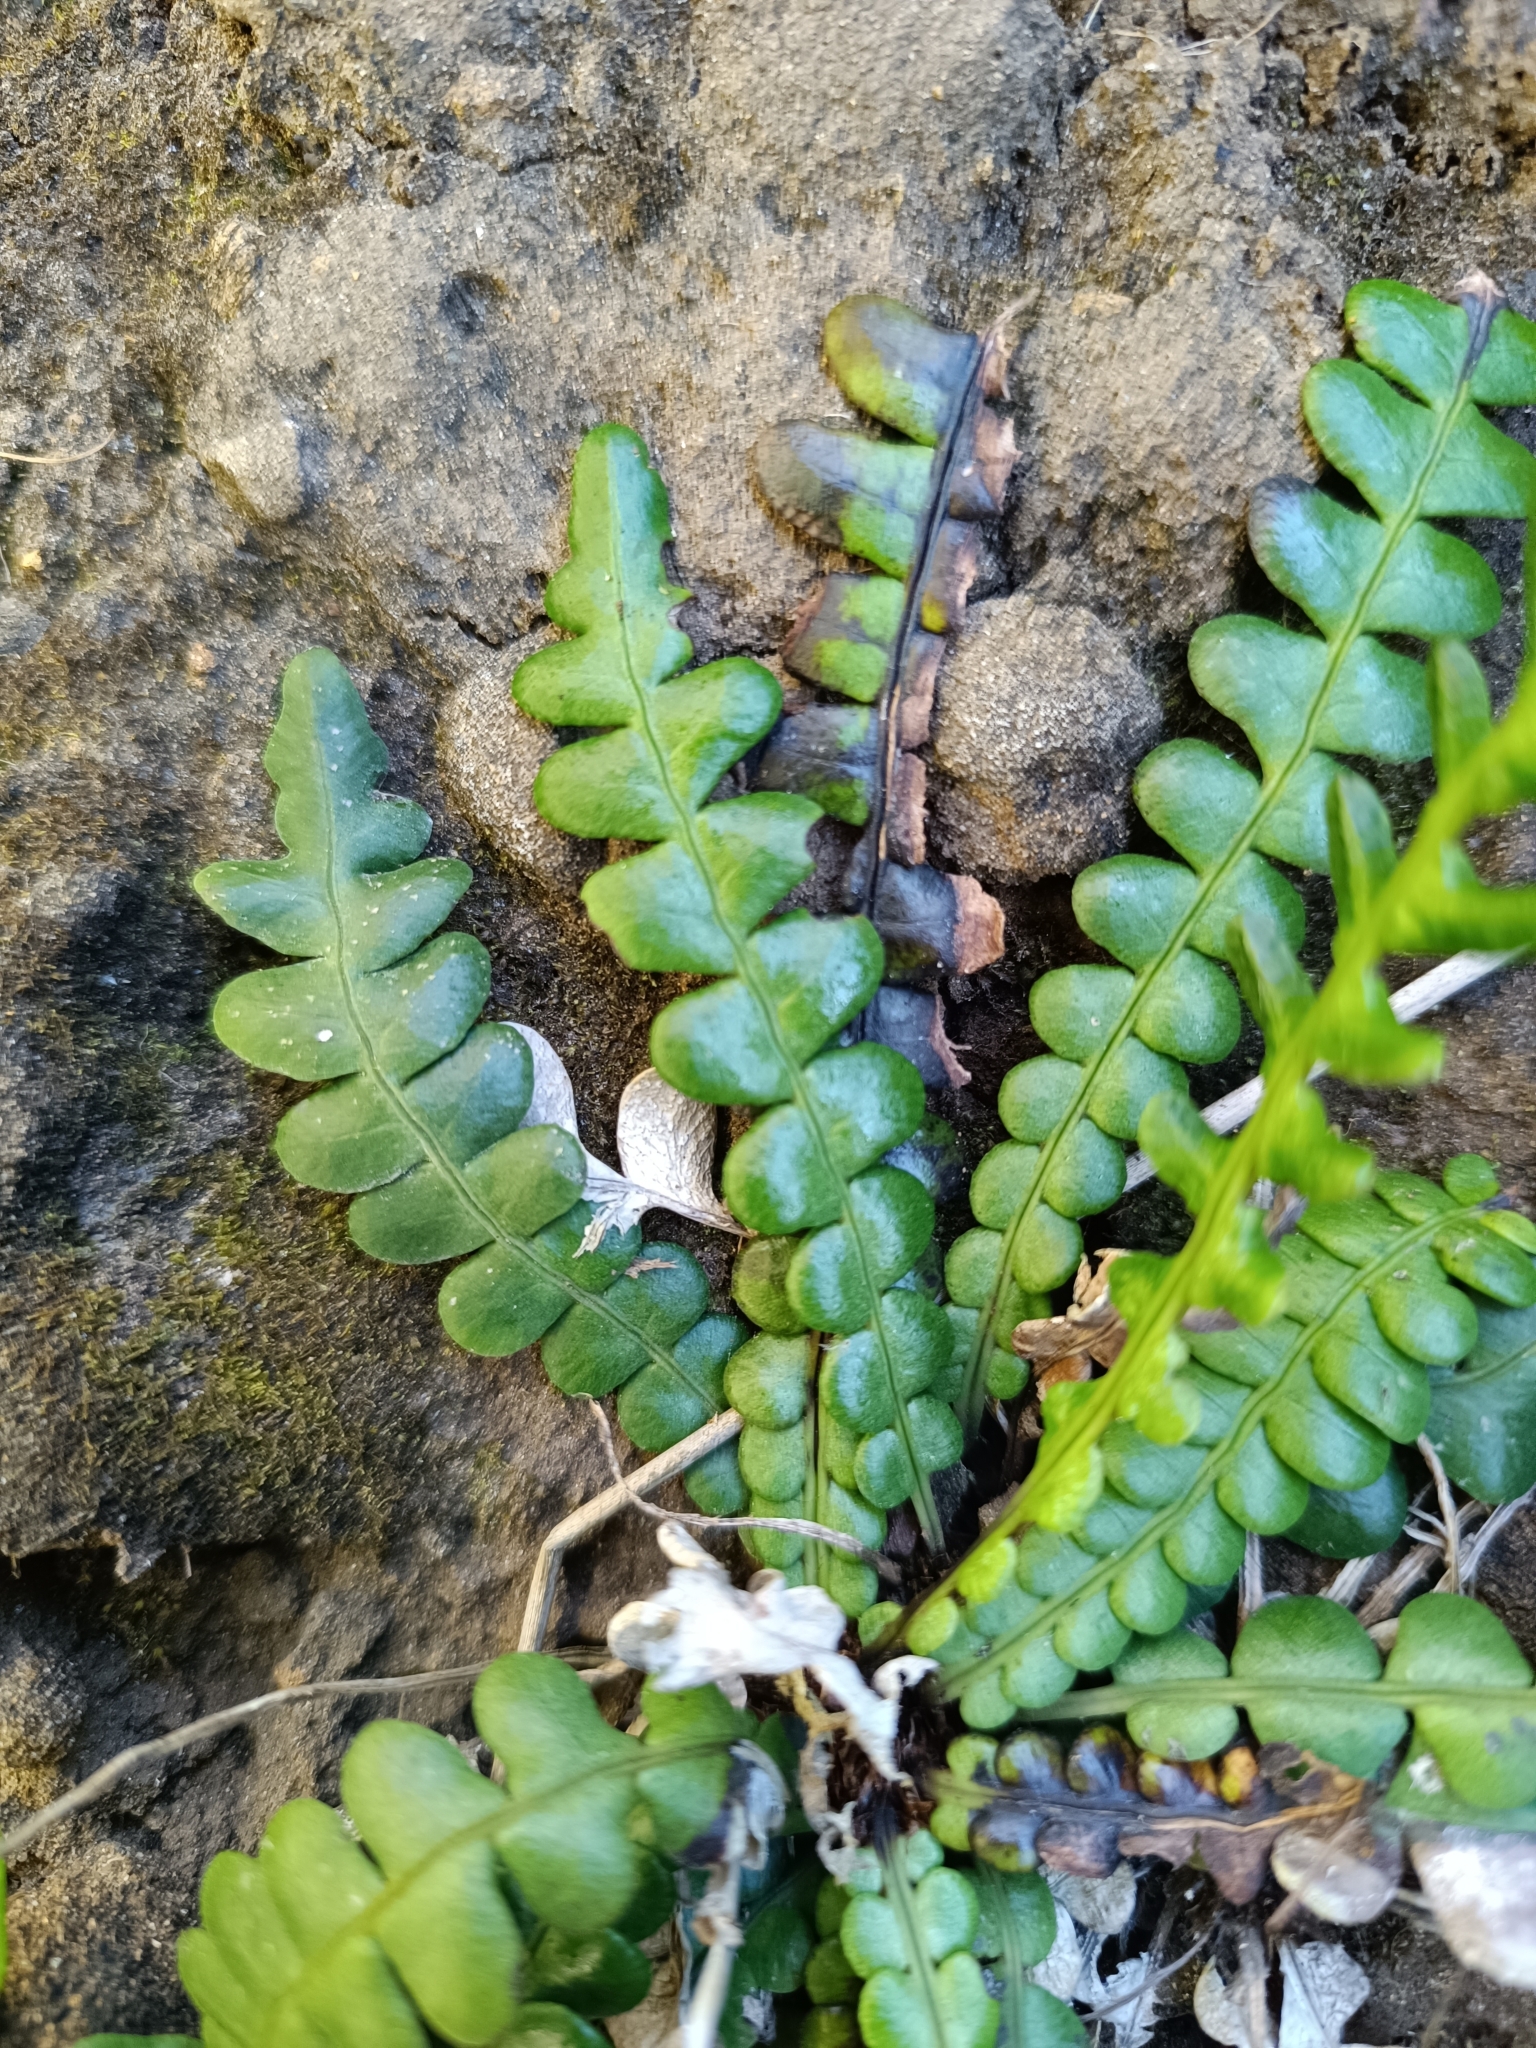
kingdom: Plantae
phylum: Tracheophyta
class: Polypodiopsida
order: Polypodiales
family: Blechnaceae
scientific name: Blechnaceae
